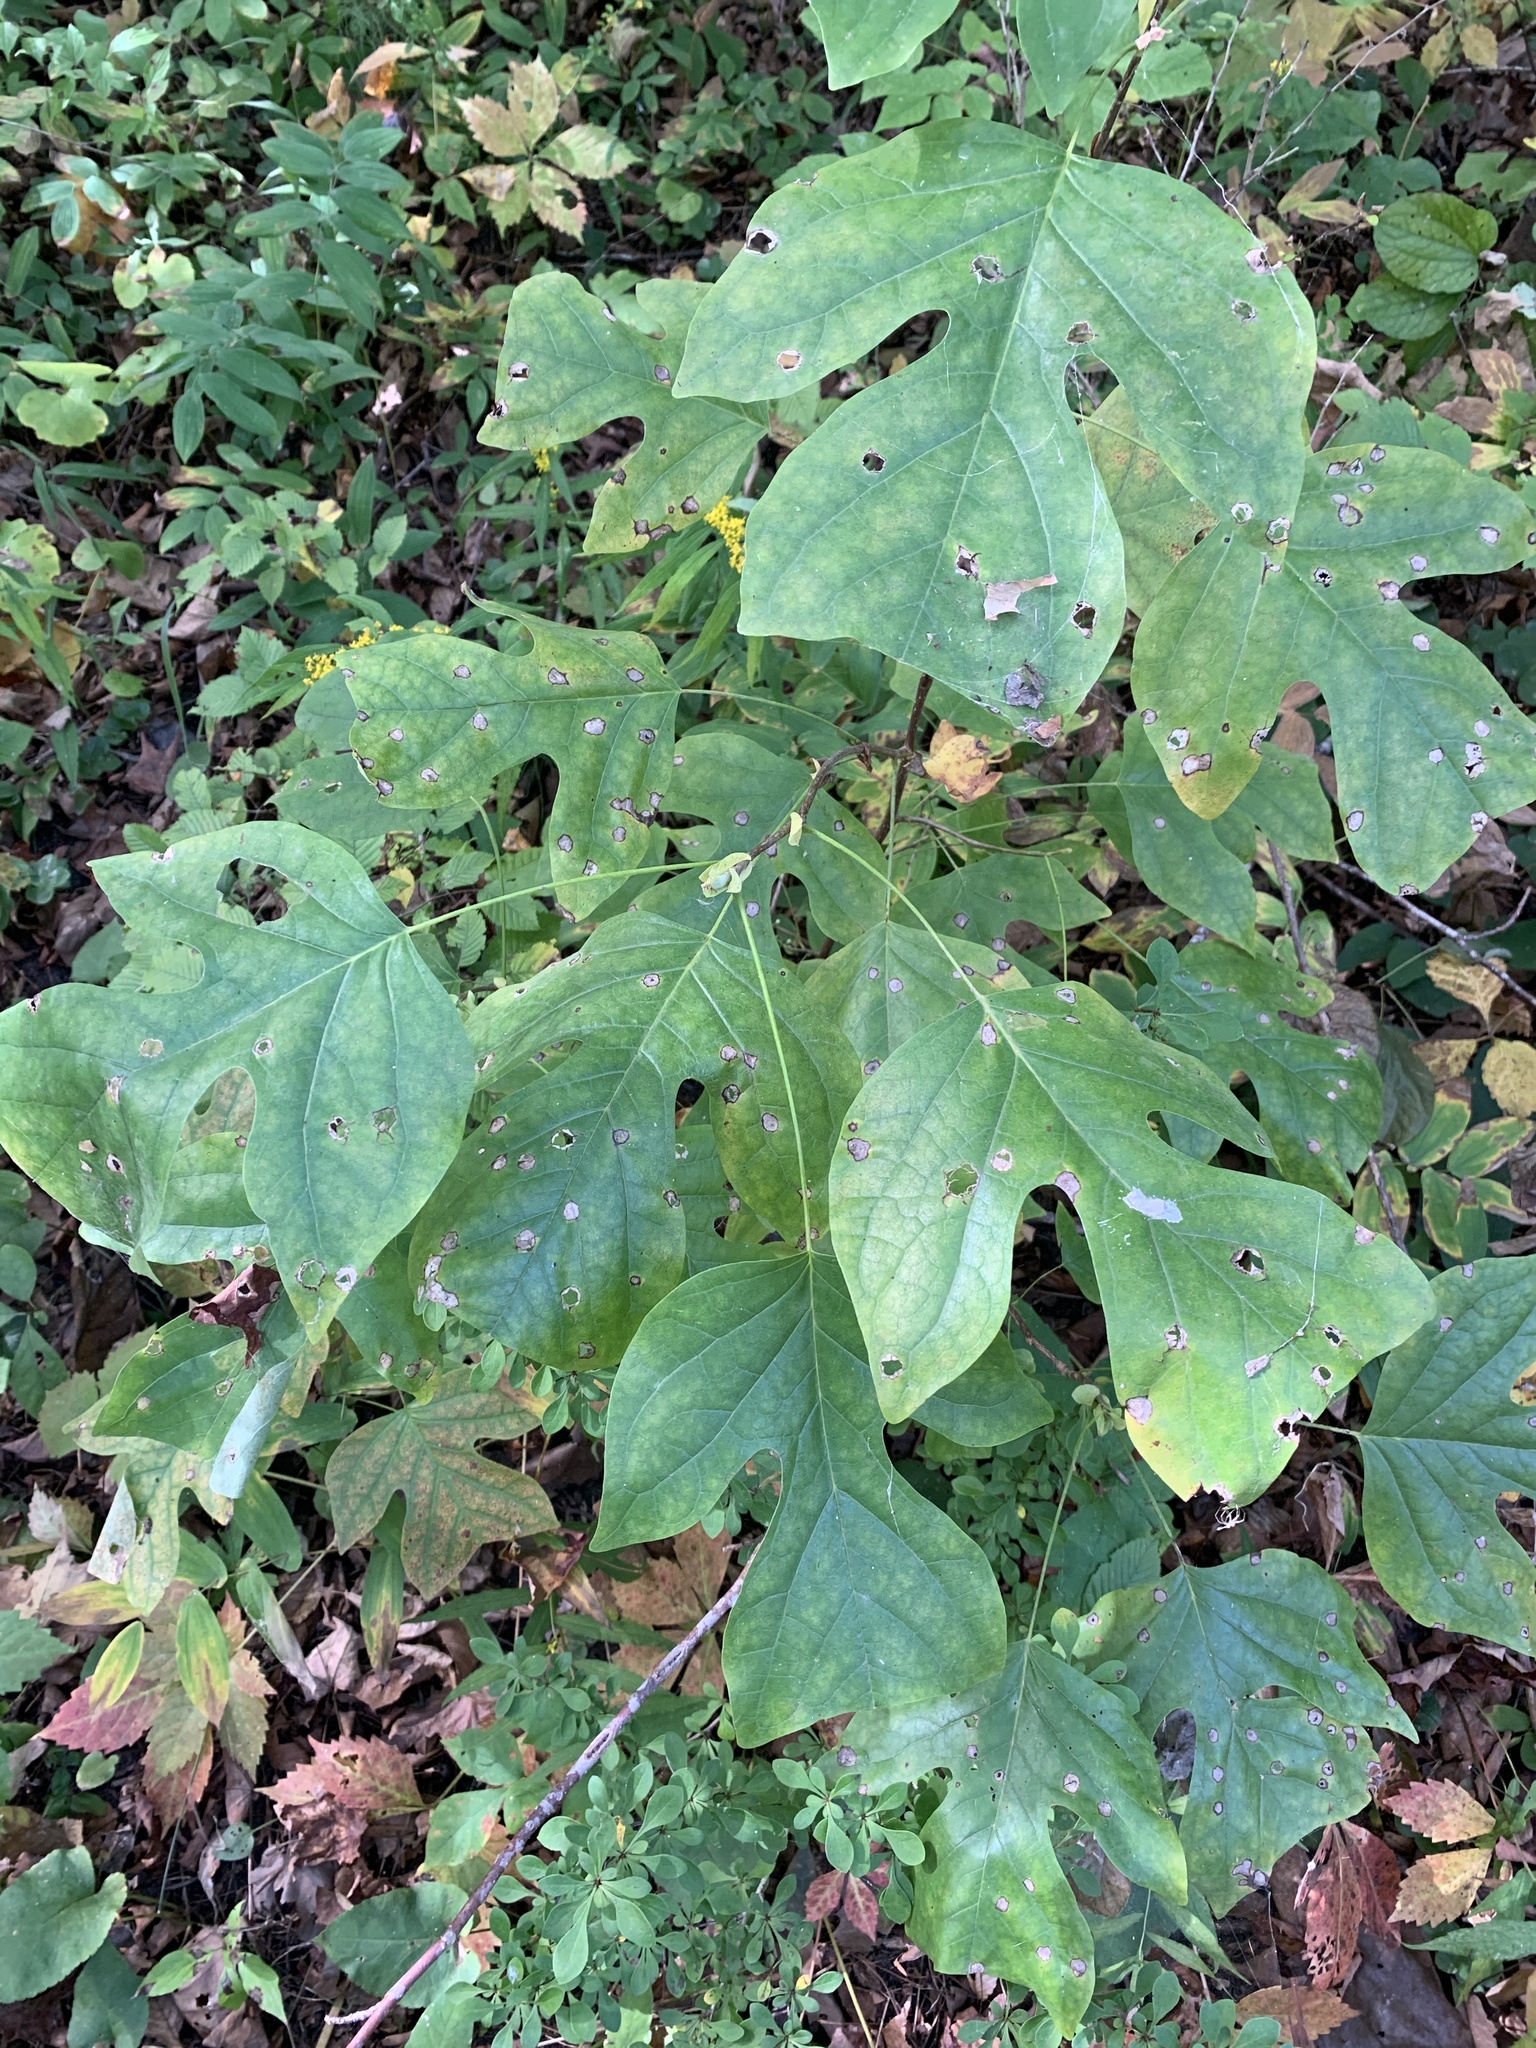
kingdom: Plantae
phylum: Tracheophyta
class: Magnoliopsida
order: Magnoliales
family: Magnoliaceae
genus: Liriodendron
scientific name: Liriodendron tulipifera
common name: Tulip tree
